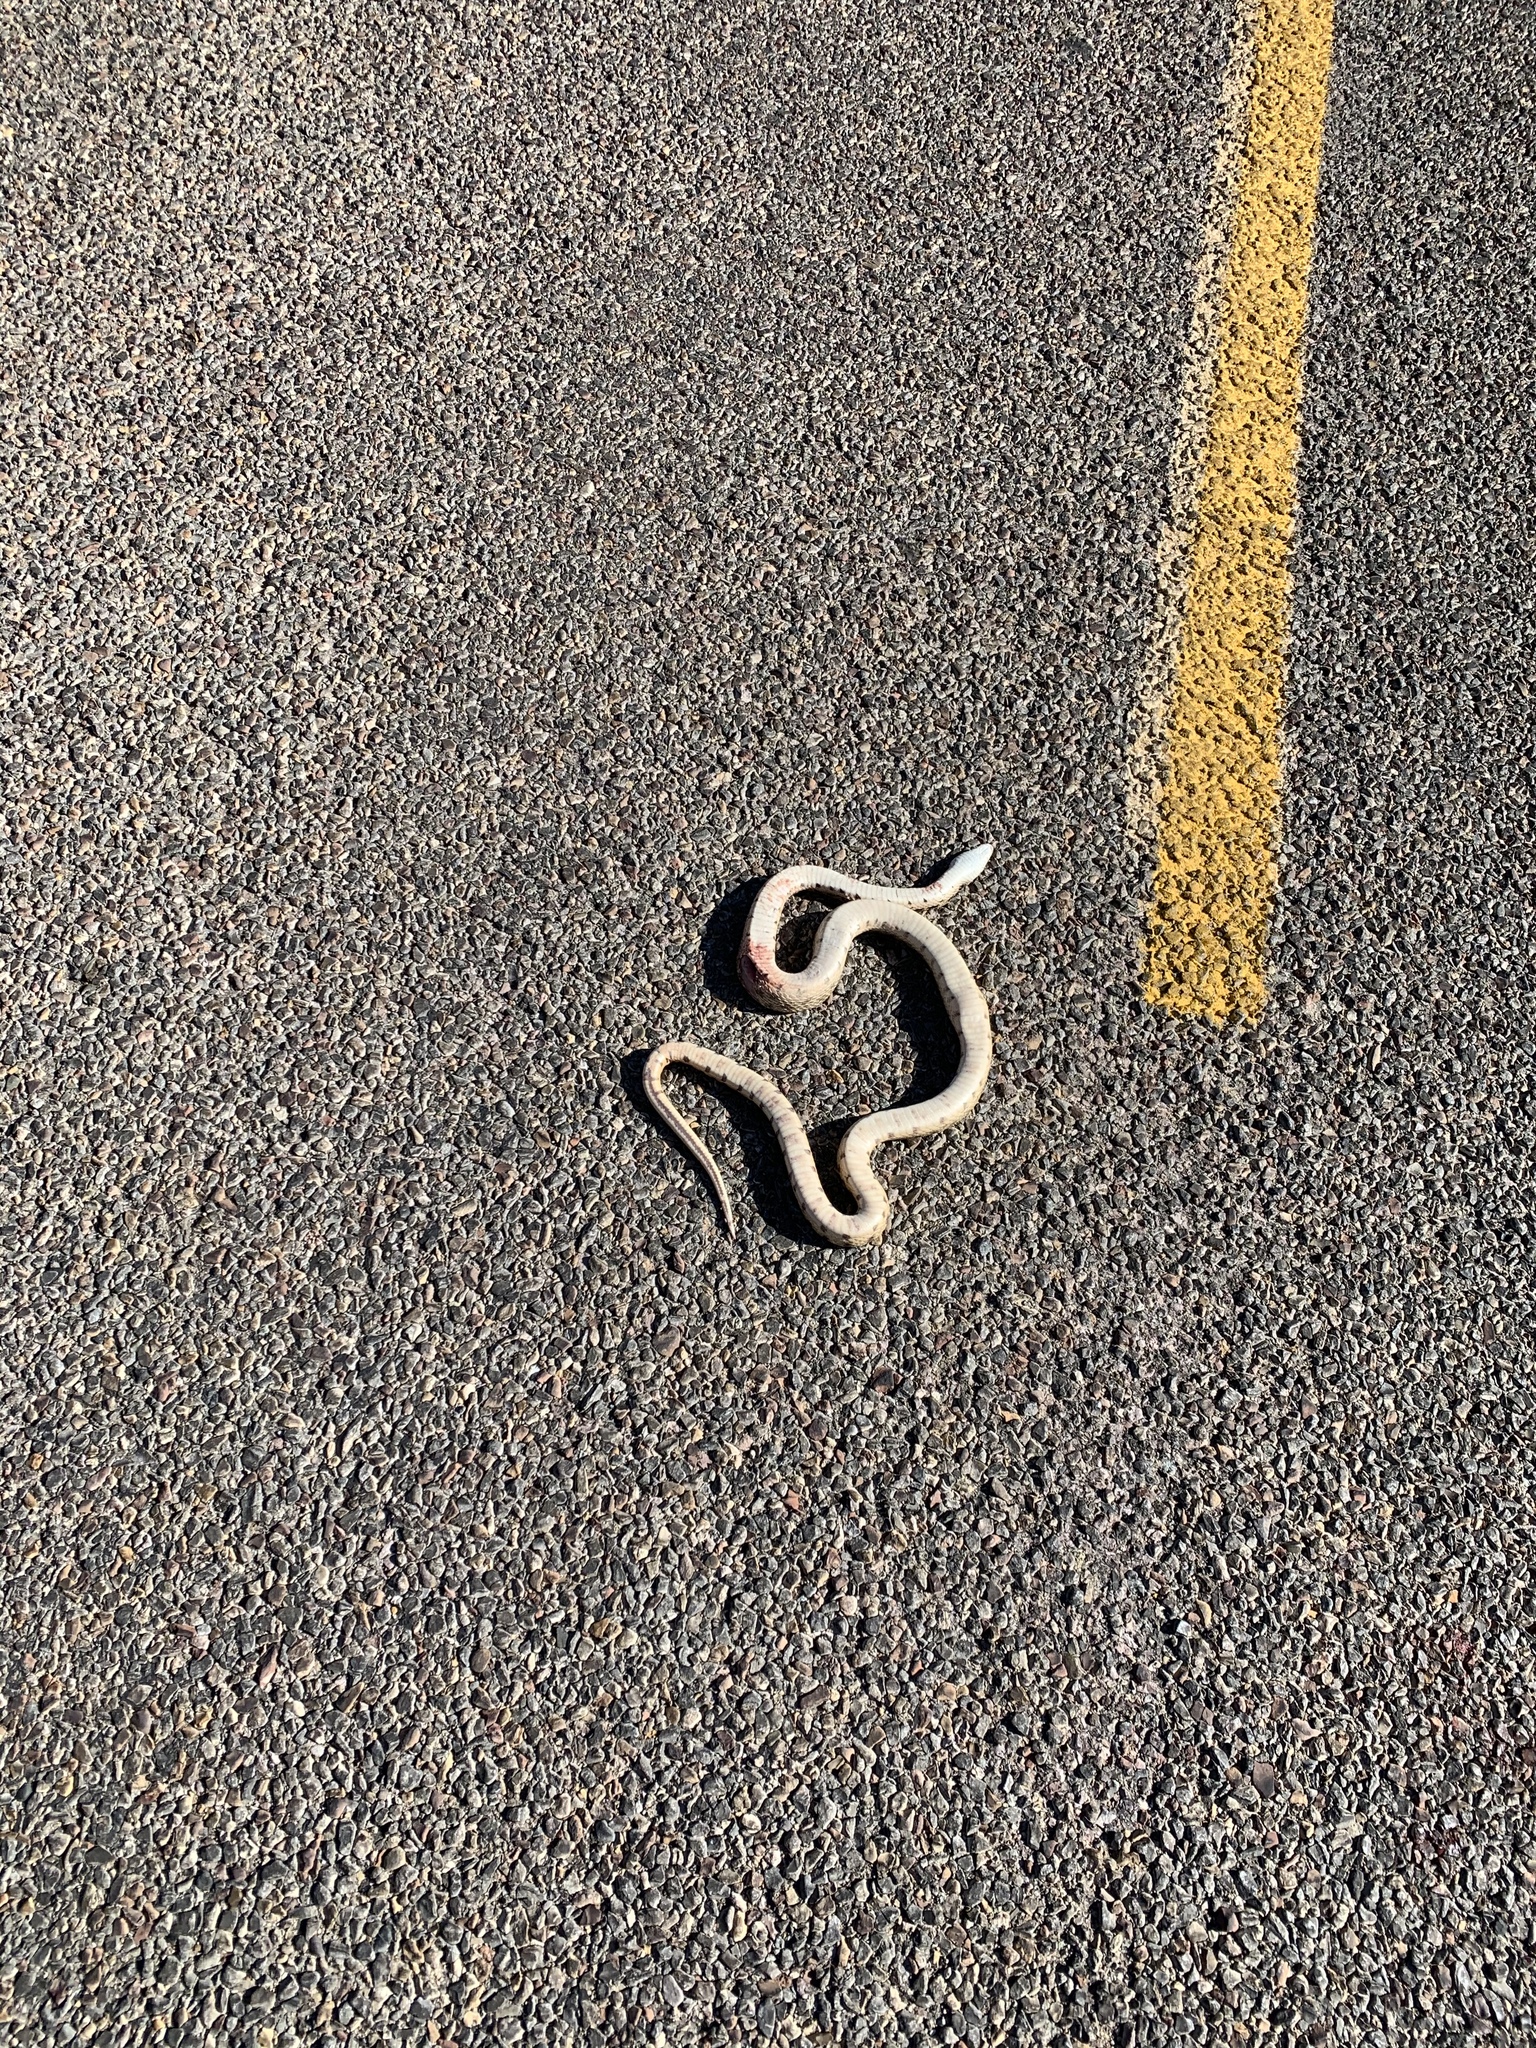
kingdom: Animalia
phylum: Chordata
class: Squamata
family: Colubridae
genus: Pituophis
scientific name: Pituophis catenifer
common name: Gopher snake
